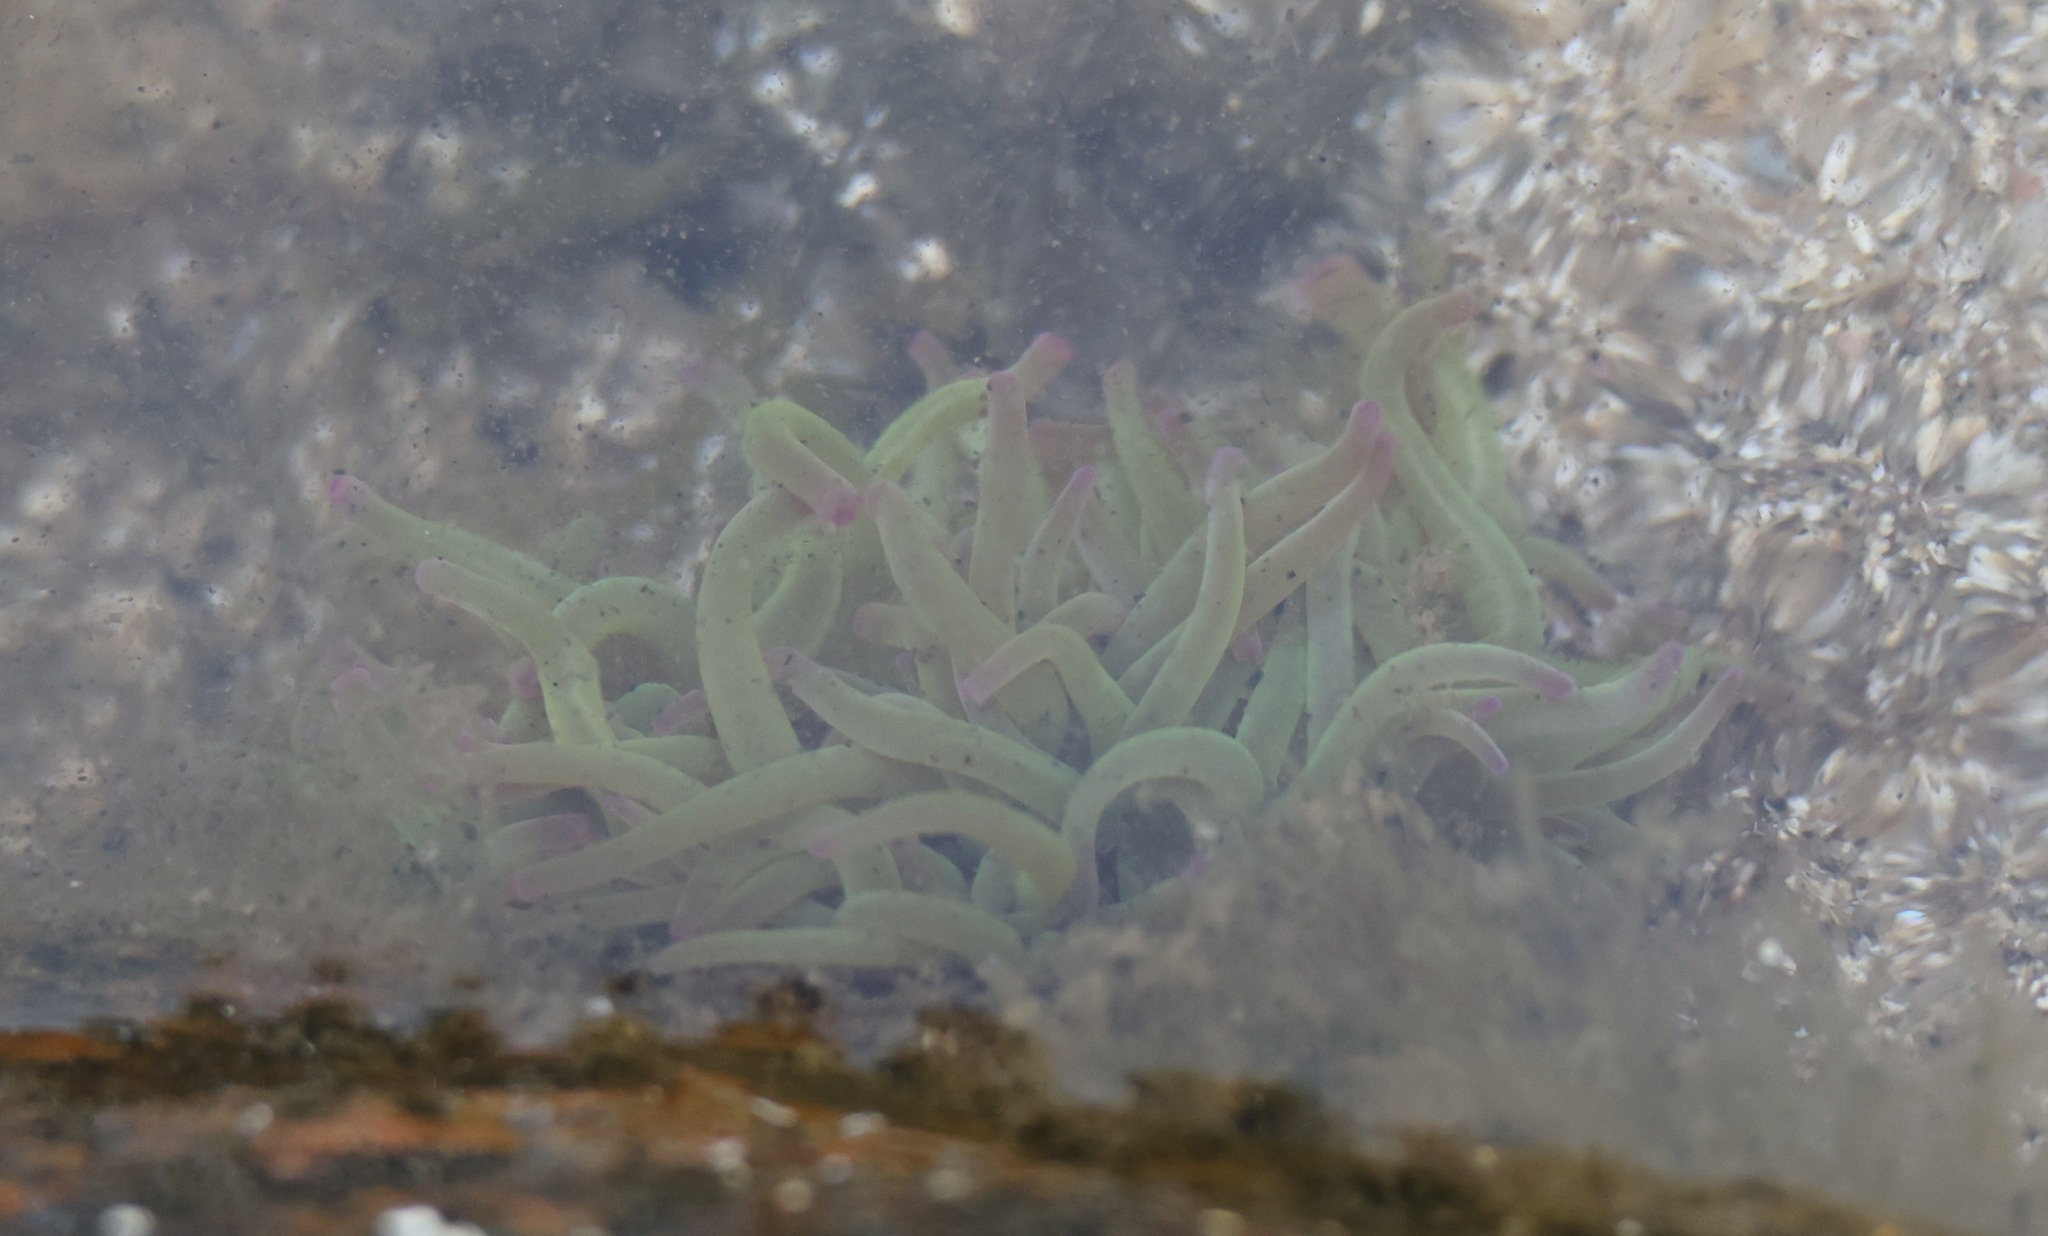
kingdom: Animalia
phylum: Cnidaria
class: Anthozoa
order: Actiniaria
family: Actiniidae
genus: Anemonia
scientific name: Anemonia viridis
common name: Snakelocks anemone
